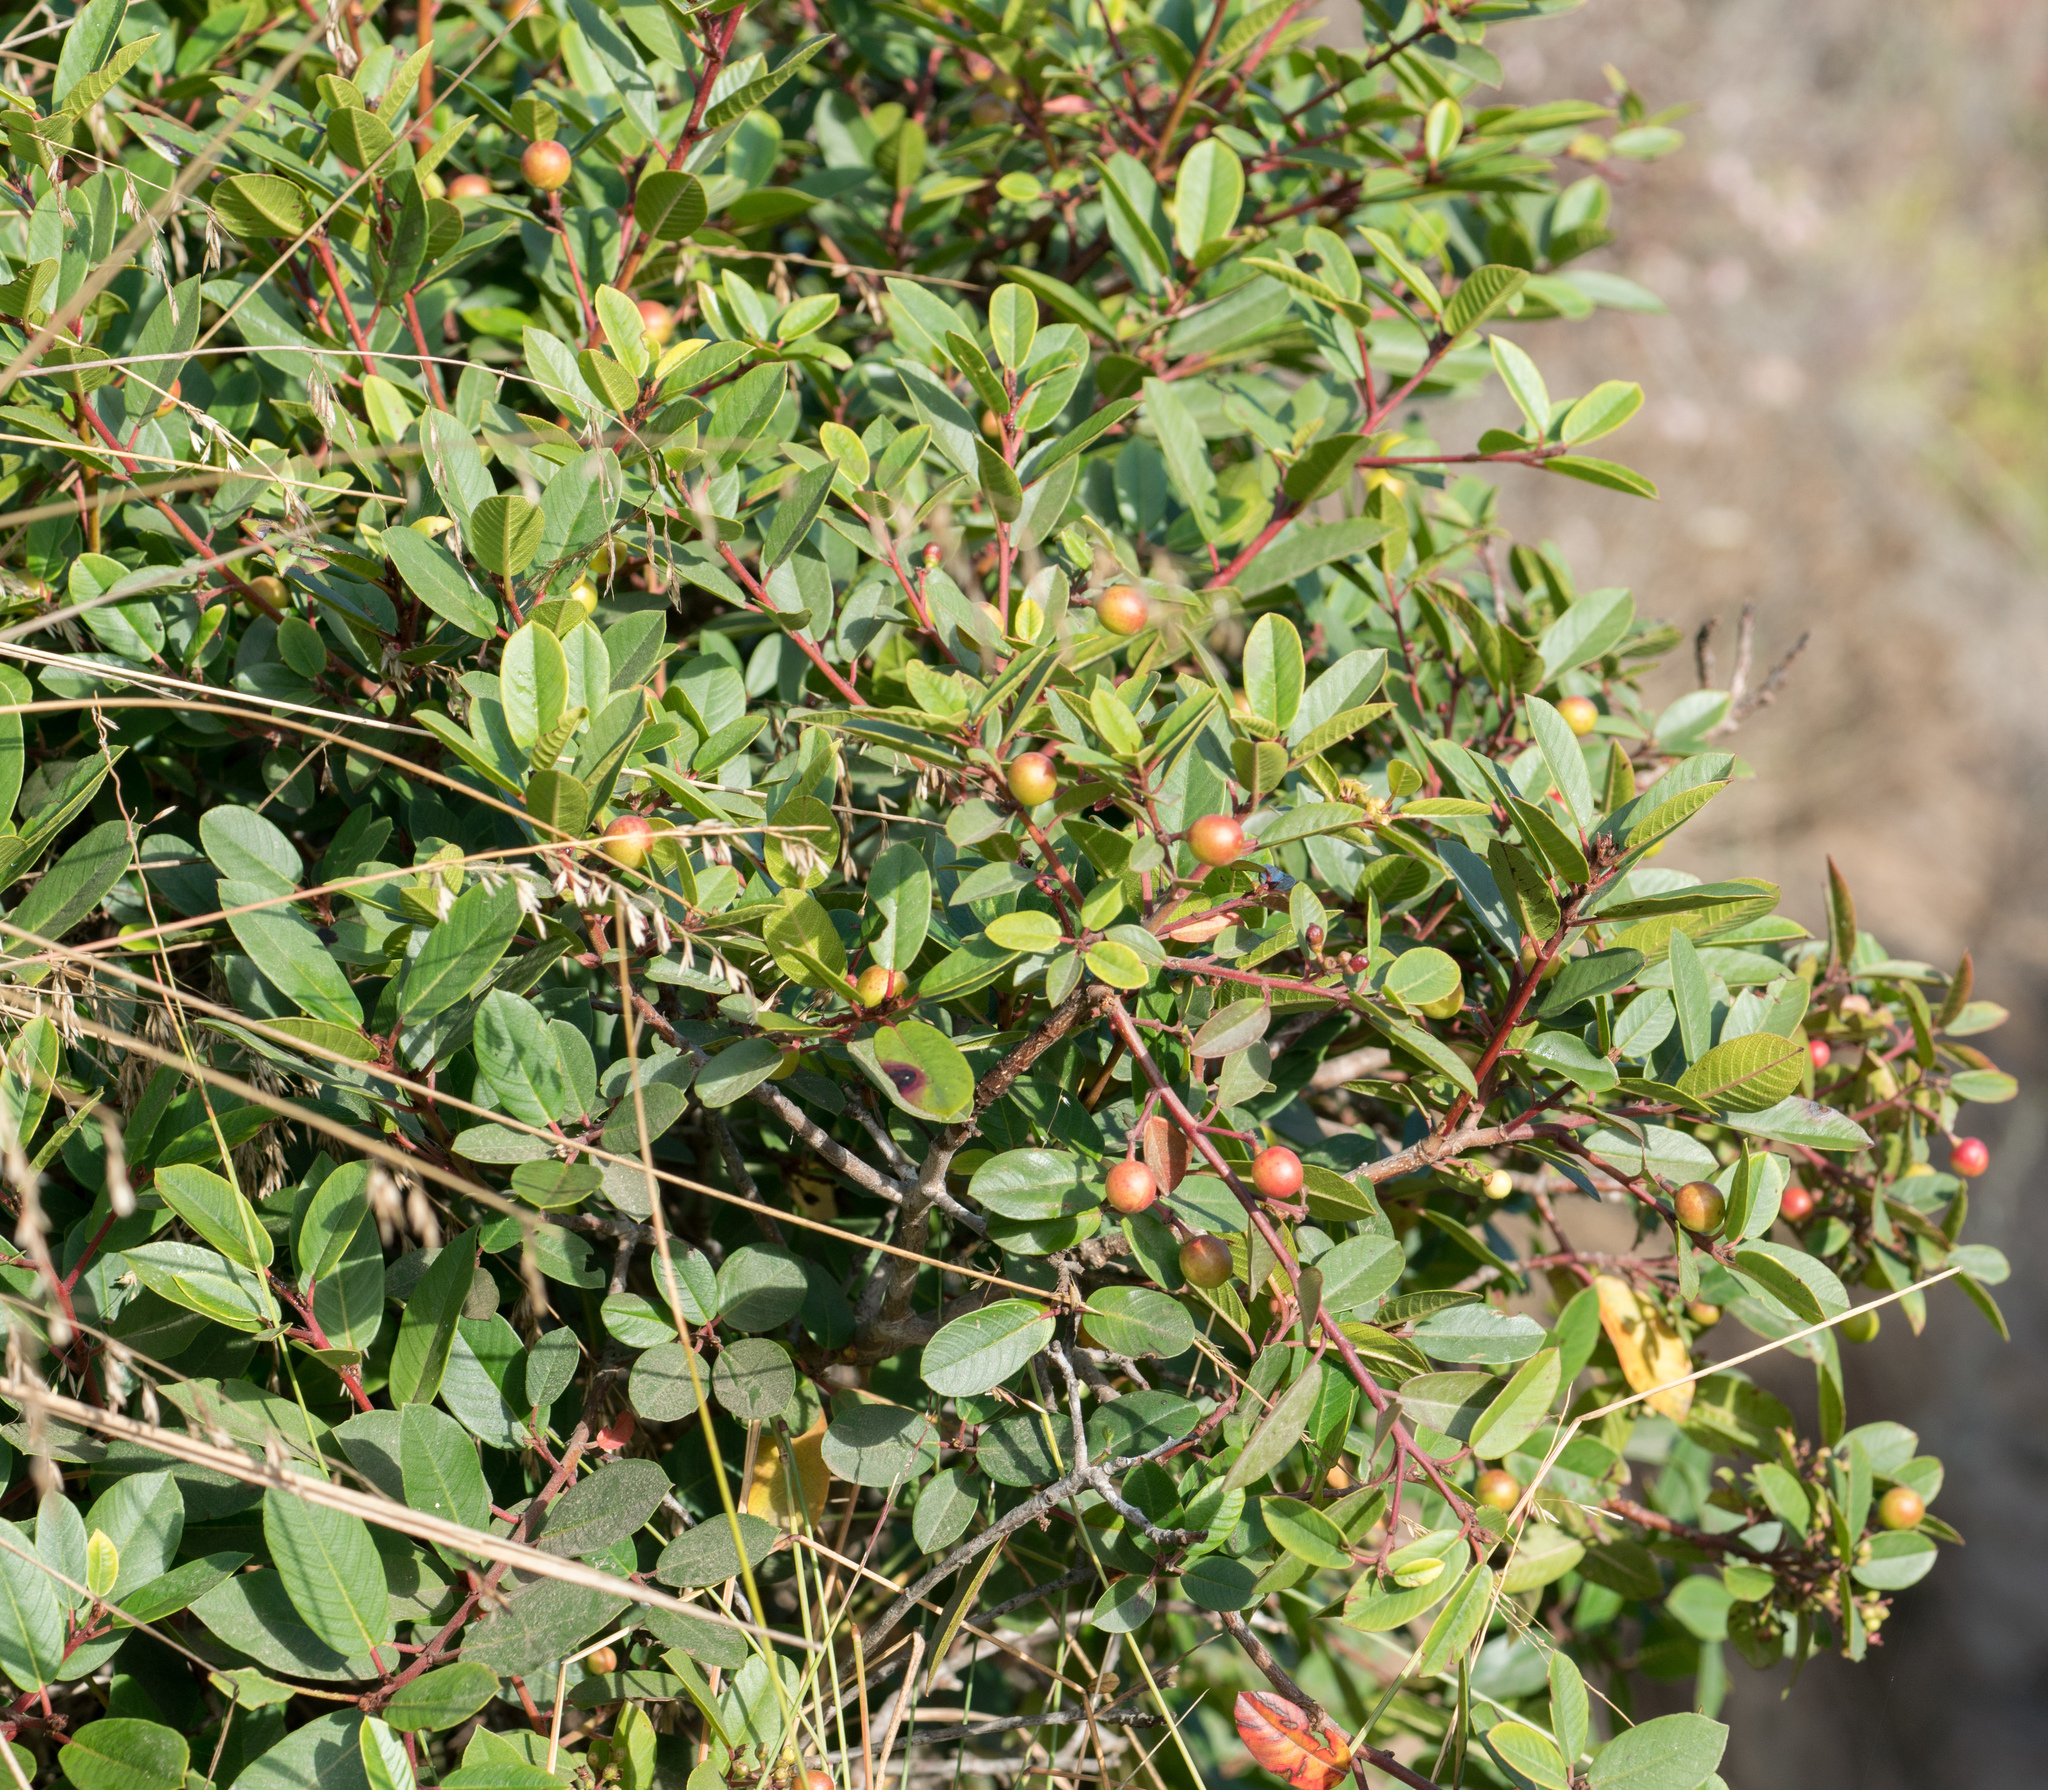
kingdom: Plantae
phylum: Tracheophyta
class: Magnoliopsida
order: Rosales
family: Rhamnaceae
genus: Frangula
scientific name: Frangula californica
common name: California buckthorn
